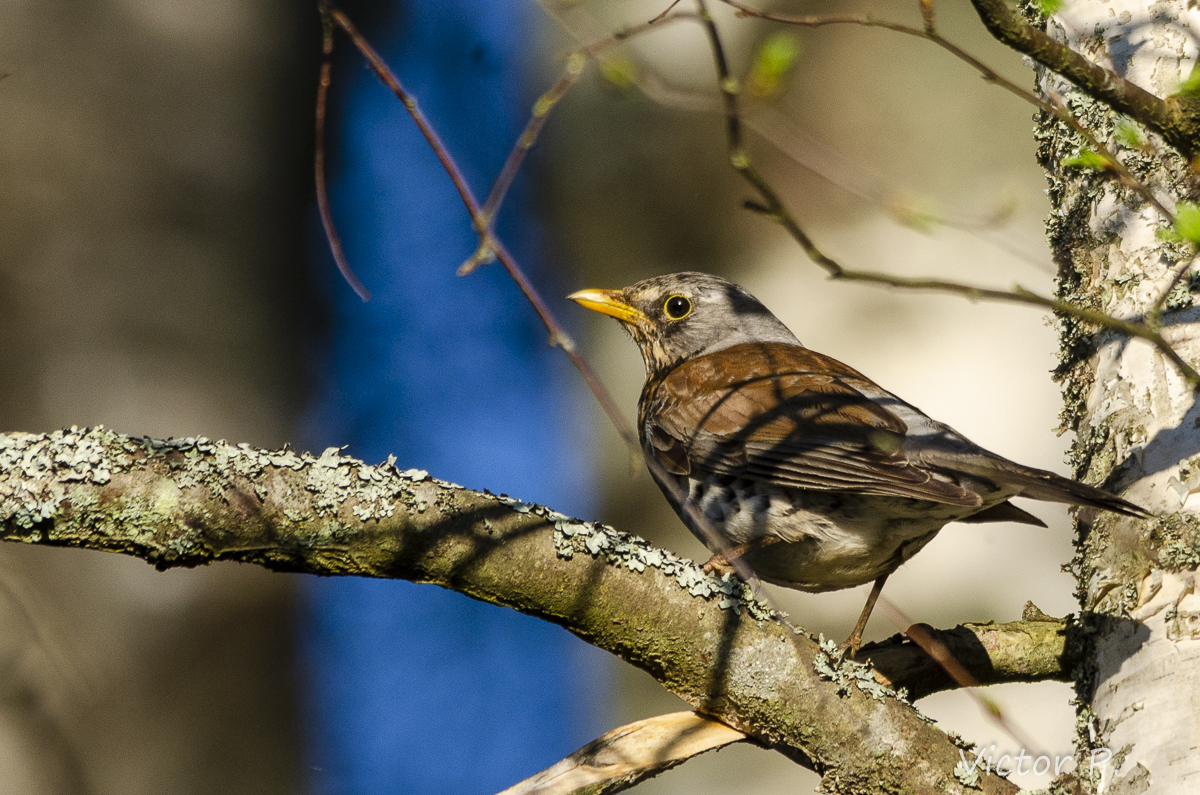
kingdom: Animalia
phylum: Chordata
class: Aves
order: Passeriformes
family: Turdidae
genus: Turdus
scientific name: Turdus pilaris
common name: Fieldfare
